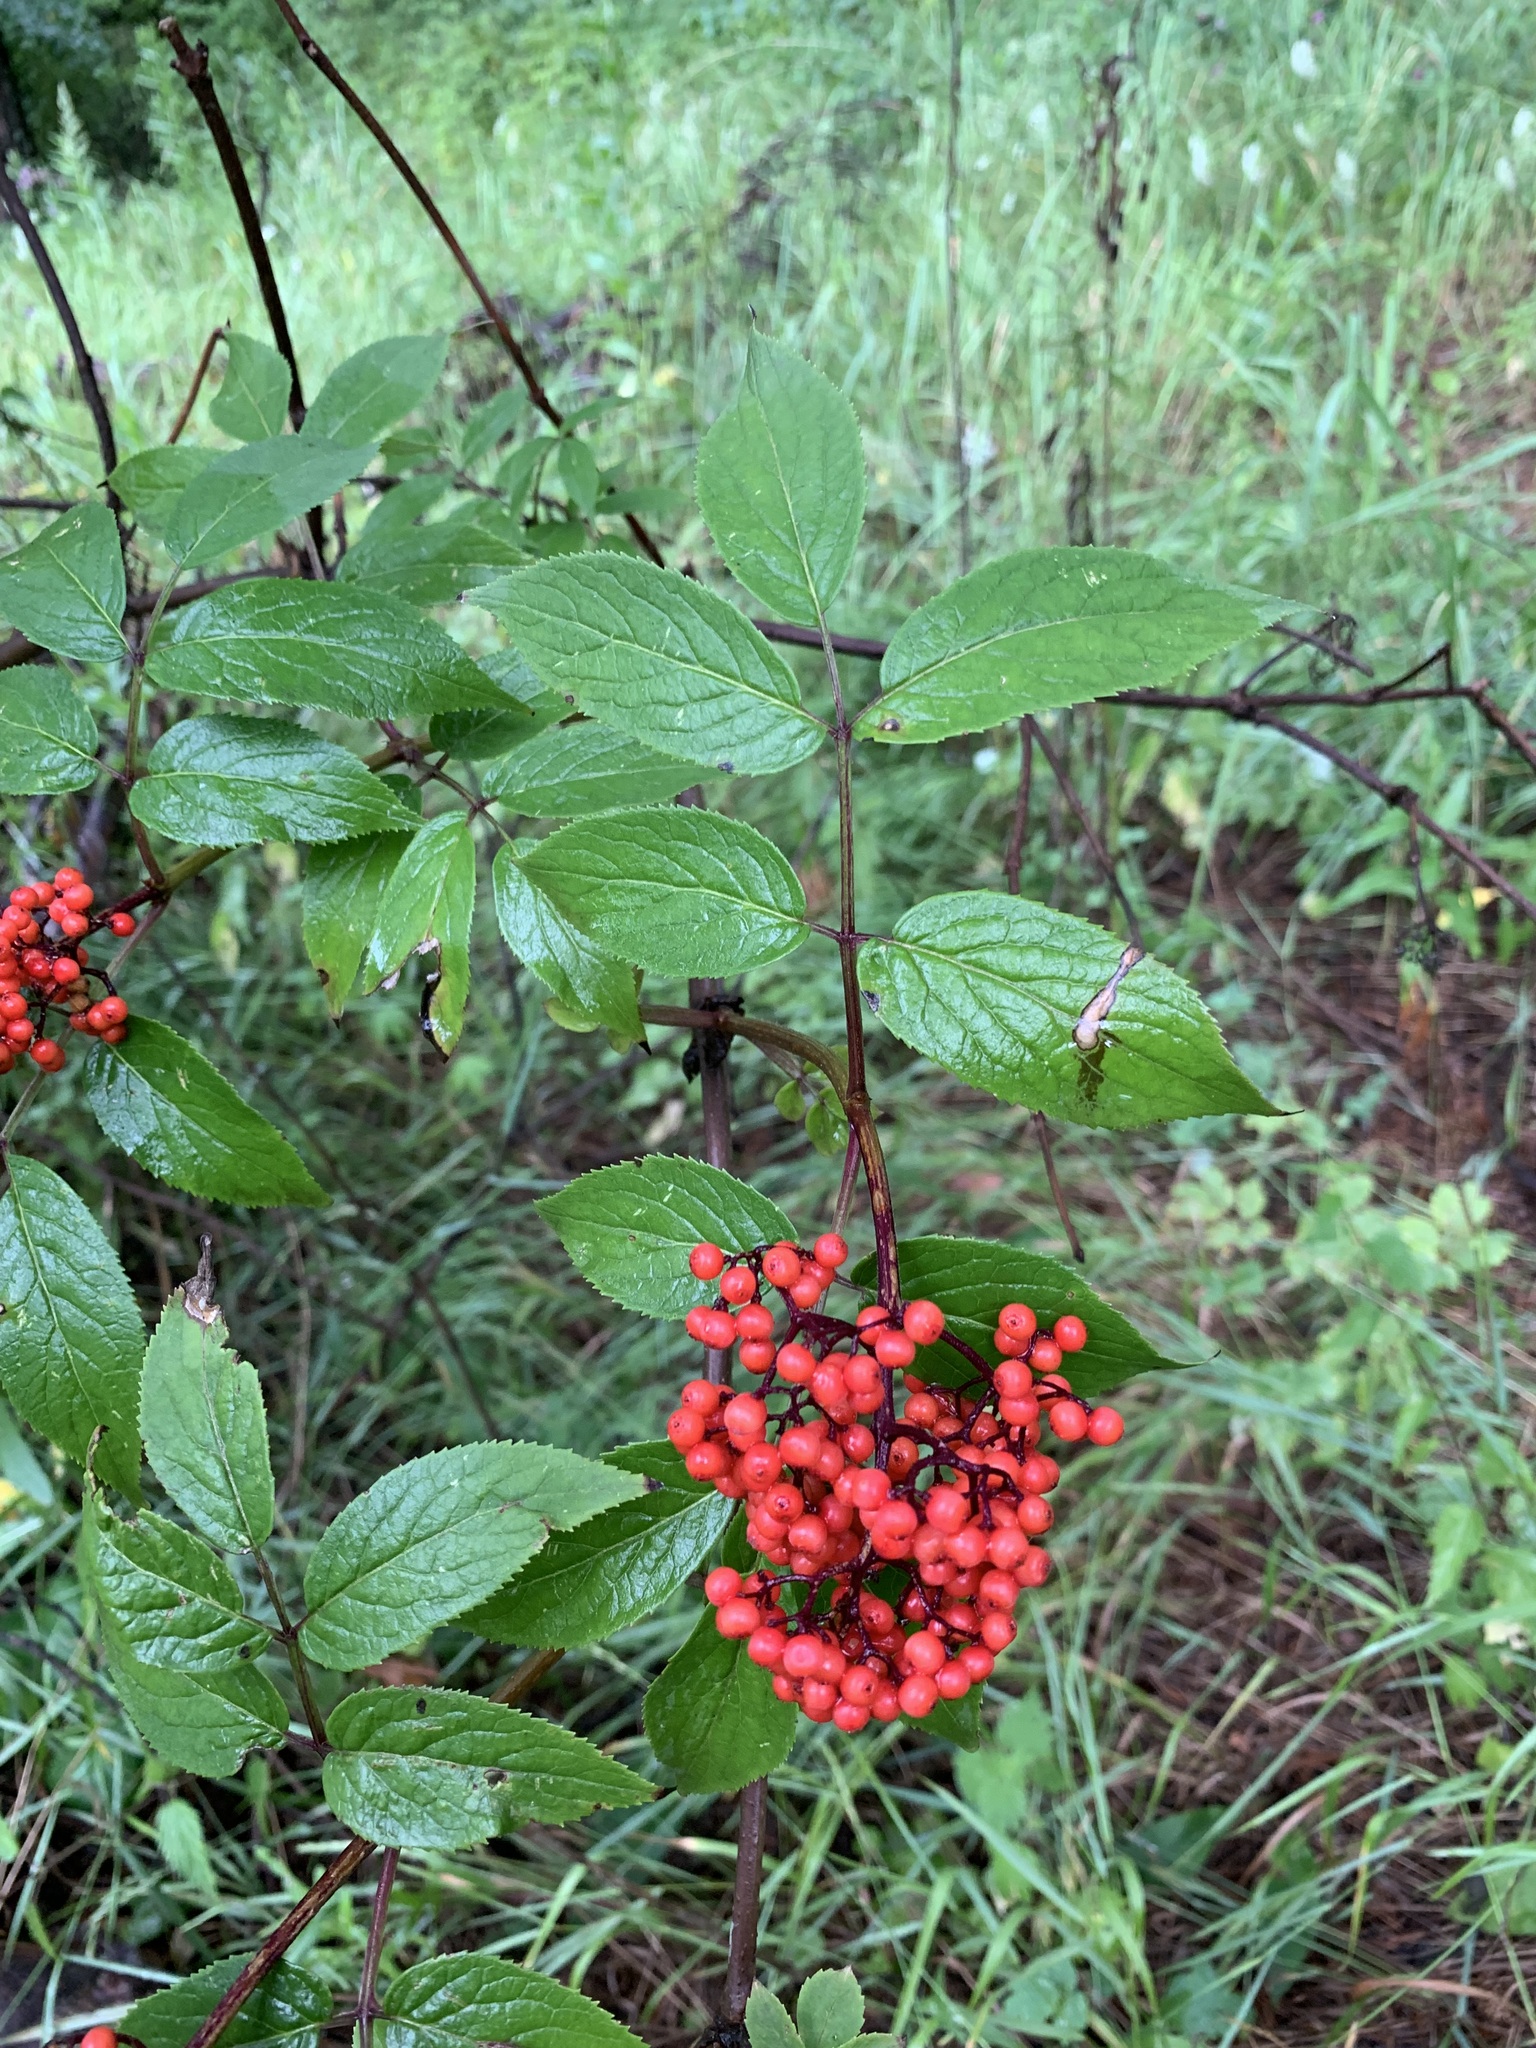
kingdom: Plantae
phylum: Tracheophyta
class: Magnoliopsida
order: Dipsacales
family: Viburnaceae
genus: Sambucus
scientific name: Sambucus racemosa
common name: Red-berried elder
